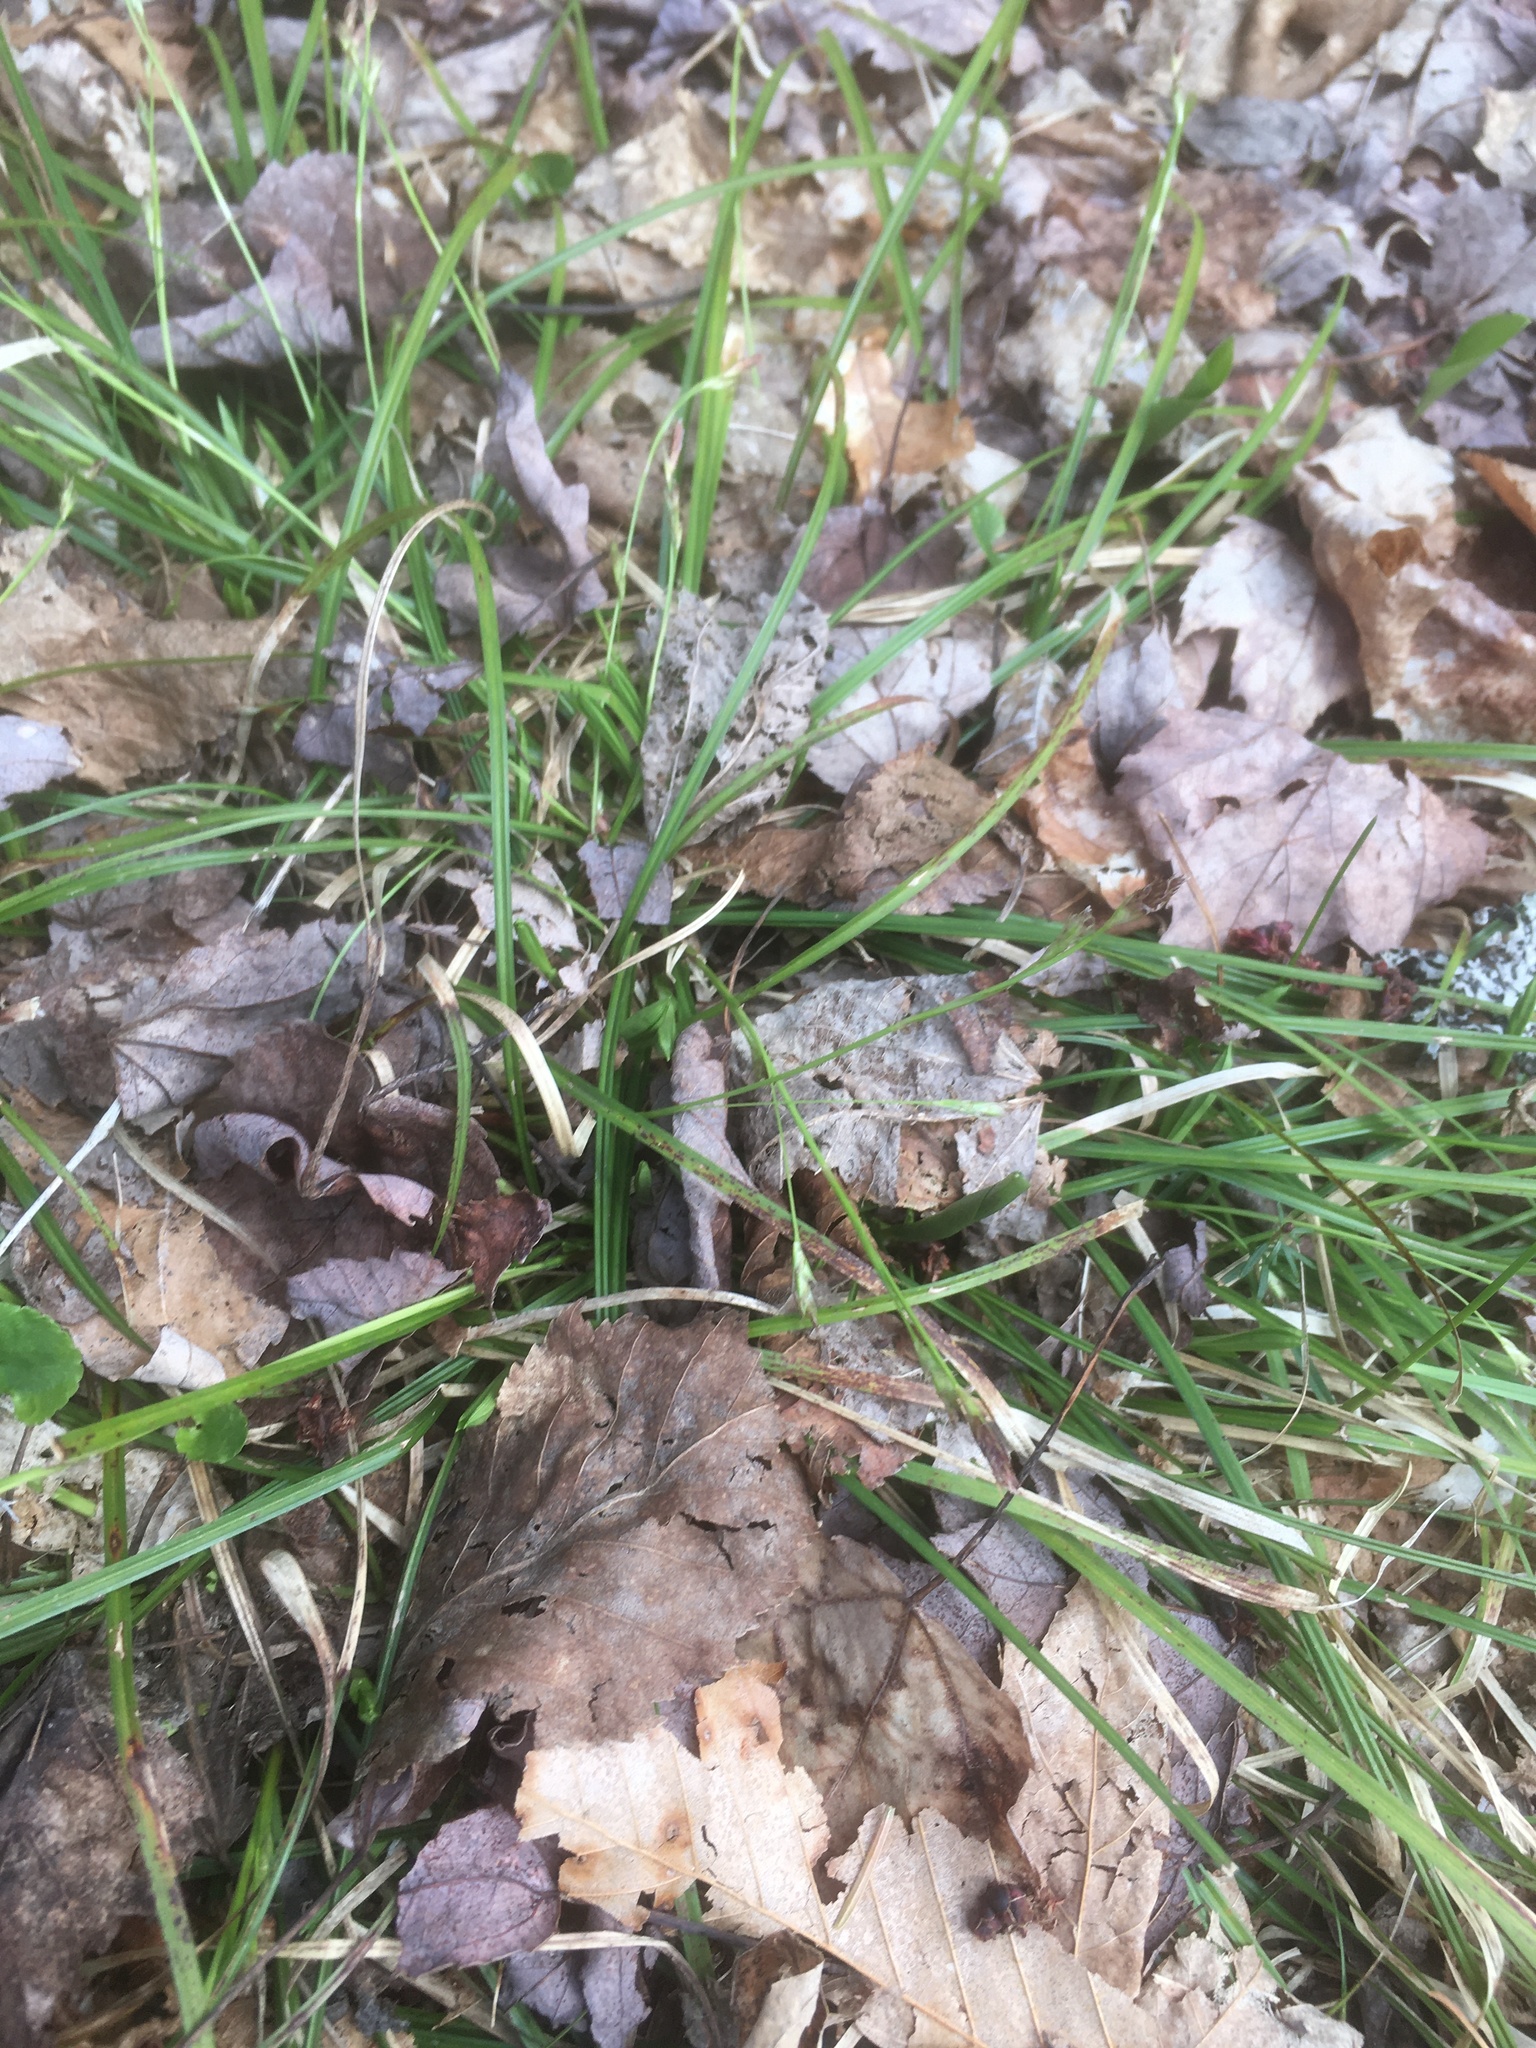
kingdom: Plantae
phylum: Tracheophyta
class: Liliopsida
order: Poales
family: Cyperaceae
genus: Carex
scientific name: Carex pedunculata
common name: Pedunculate sedge
